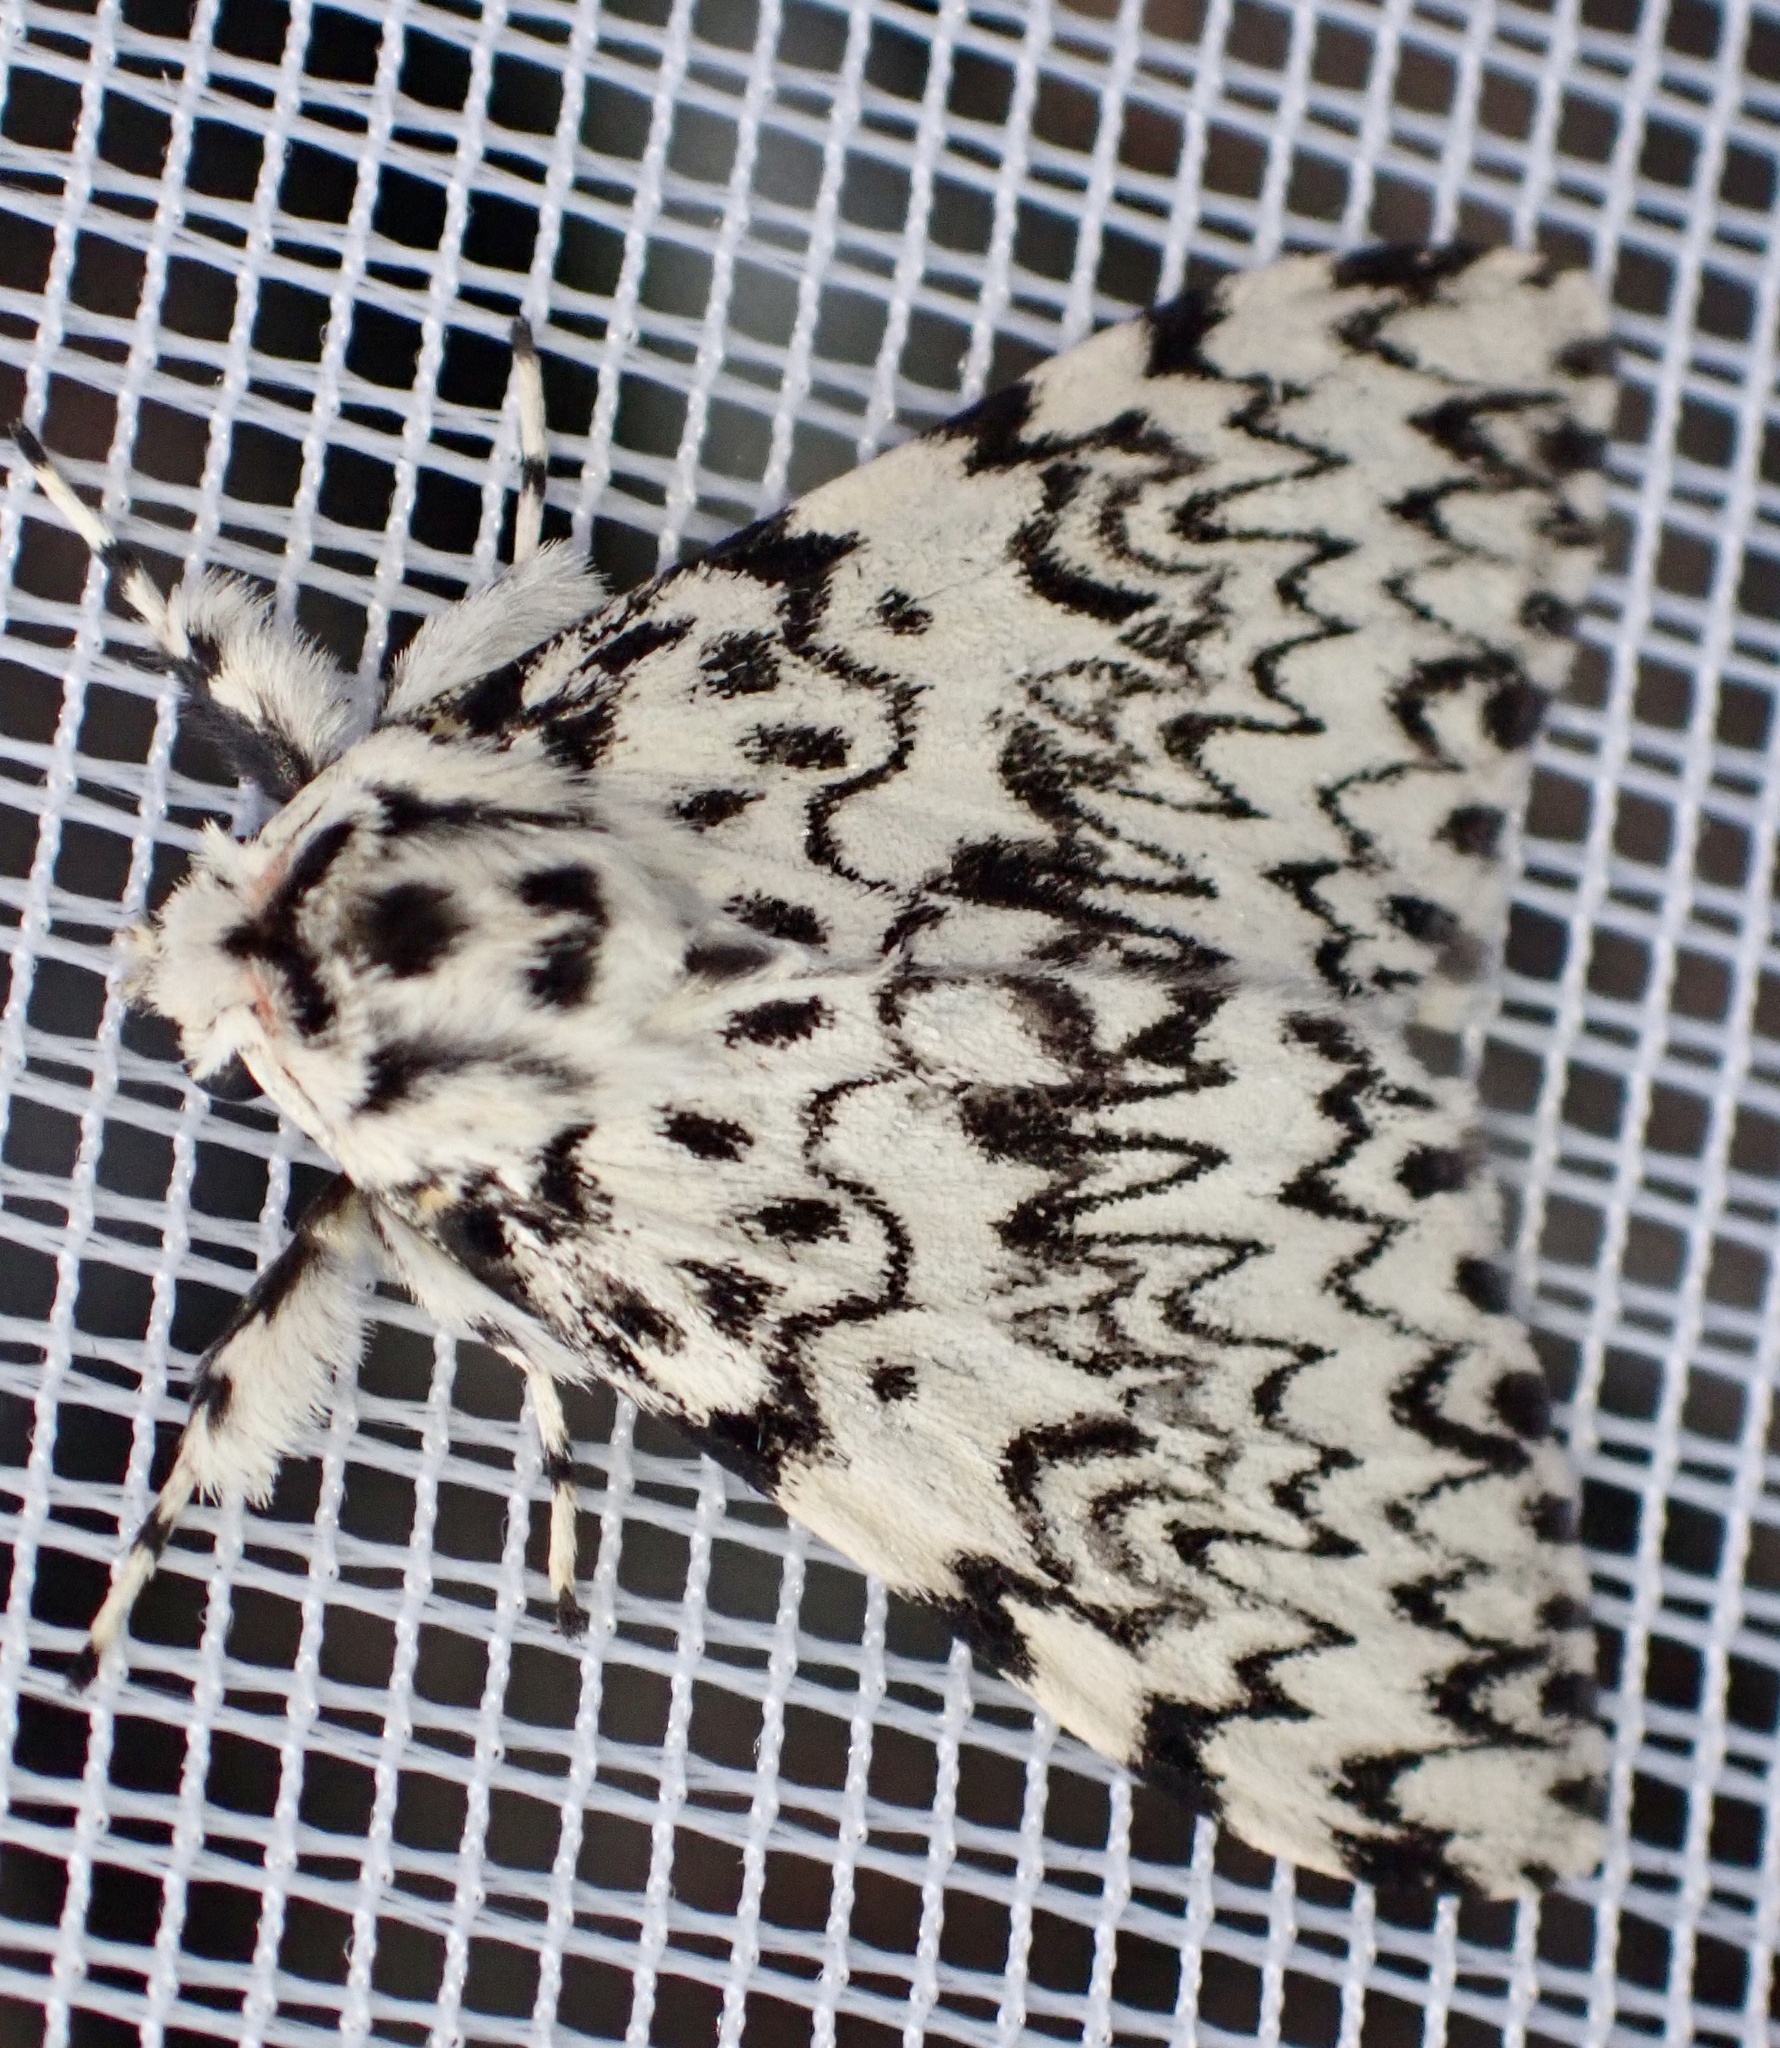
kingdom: Animalia
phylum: Arthropoda
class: Insecta
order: Lepidoptera
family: Erebidae
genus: Lymantria
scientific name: Lymantria monacha
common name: Black arches
